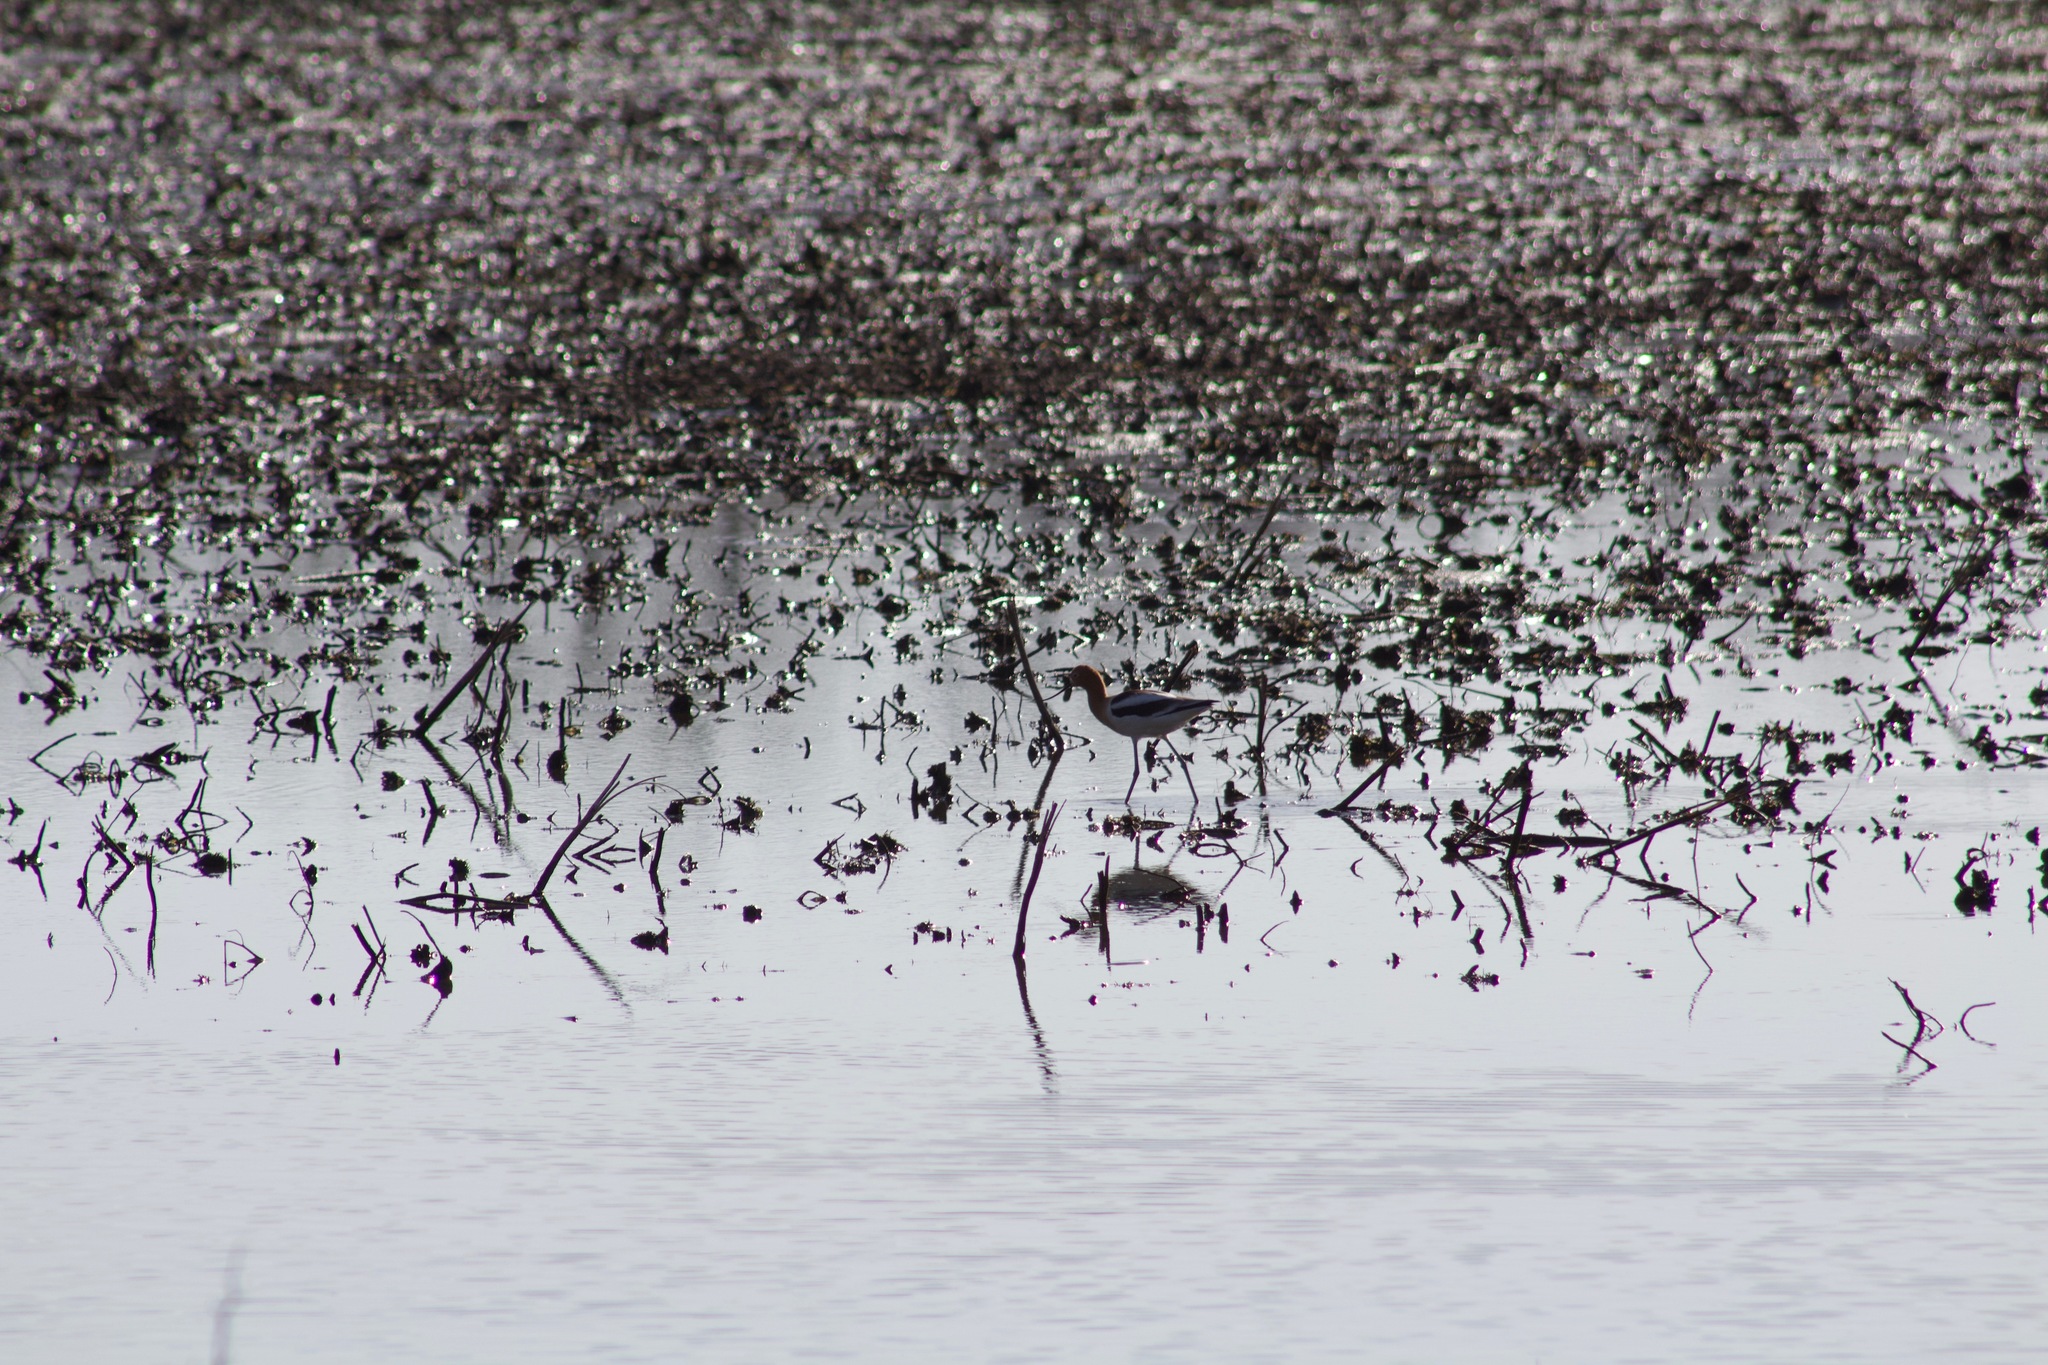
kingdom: Animalia
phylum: Chordata
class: Aves
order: Charadriiformes
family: Recurvirostridae
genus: Recurvirostra
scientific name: Recurvirostra americana
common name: American avocet
